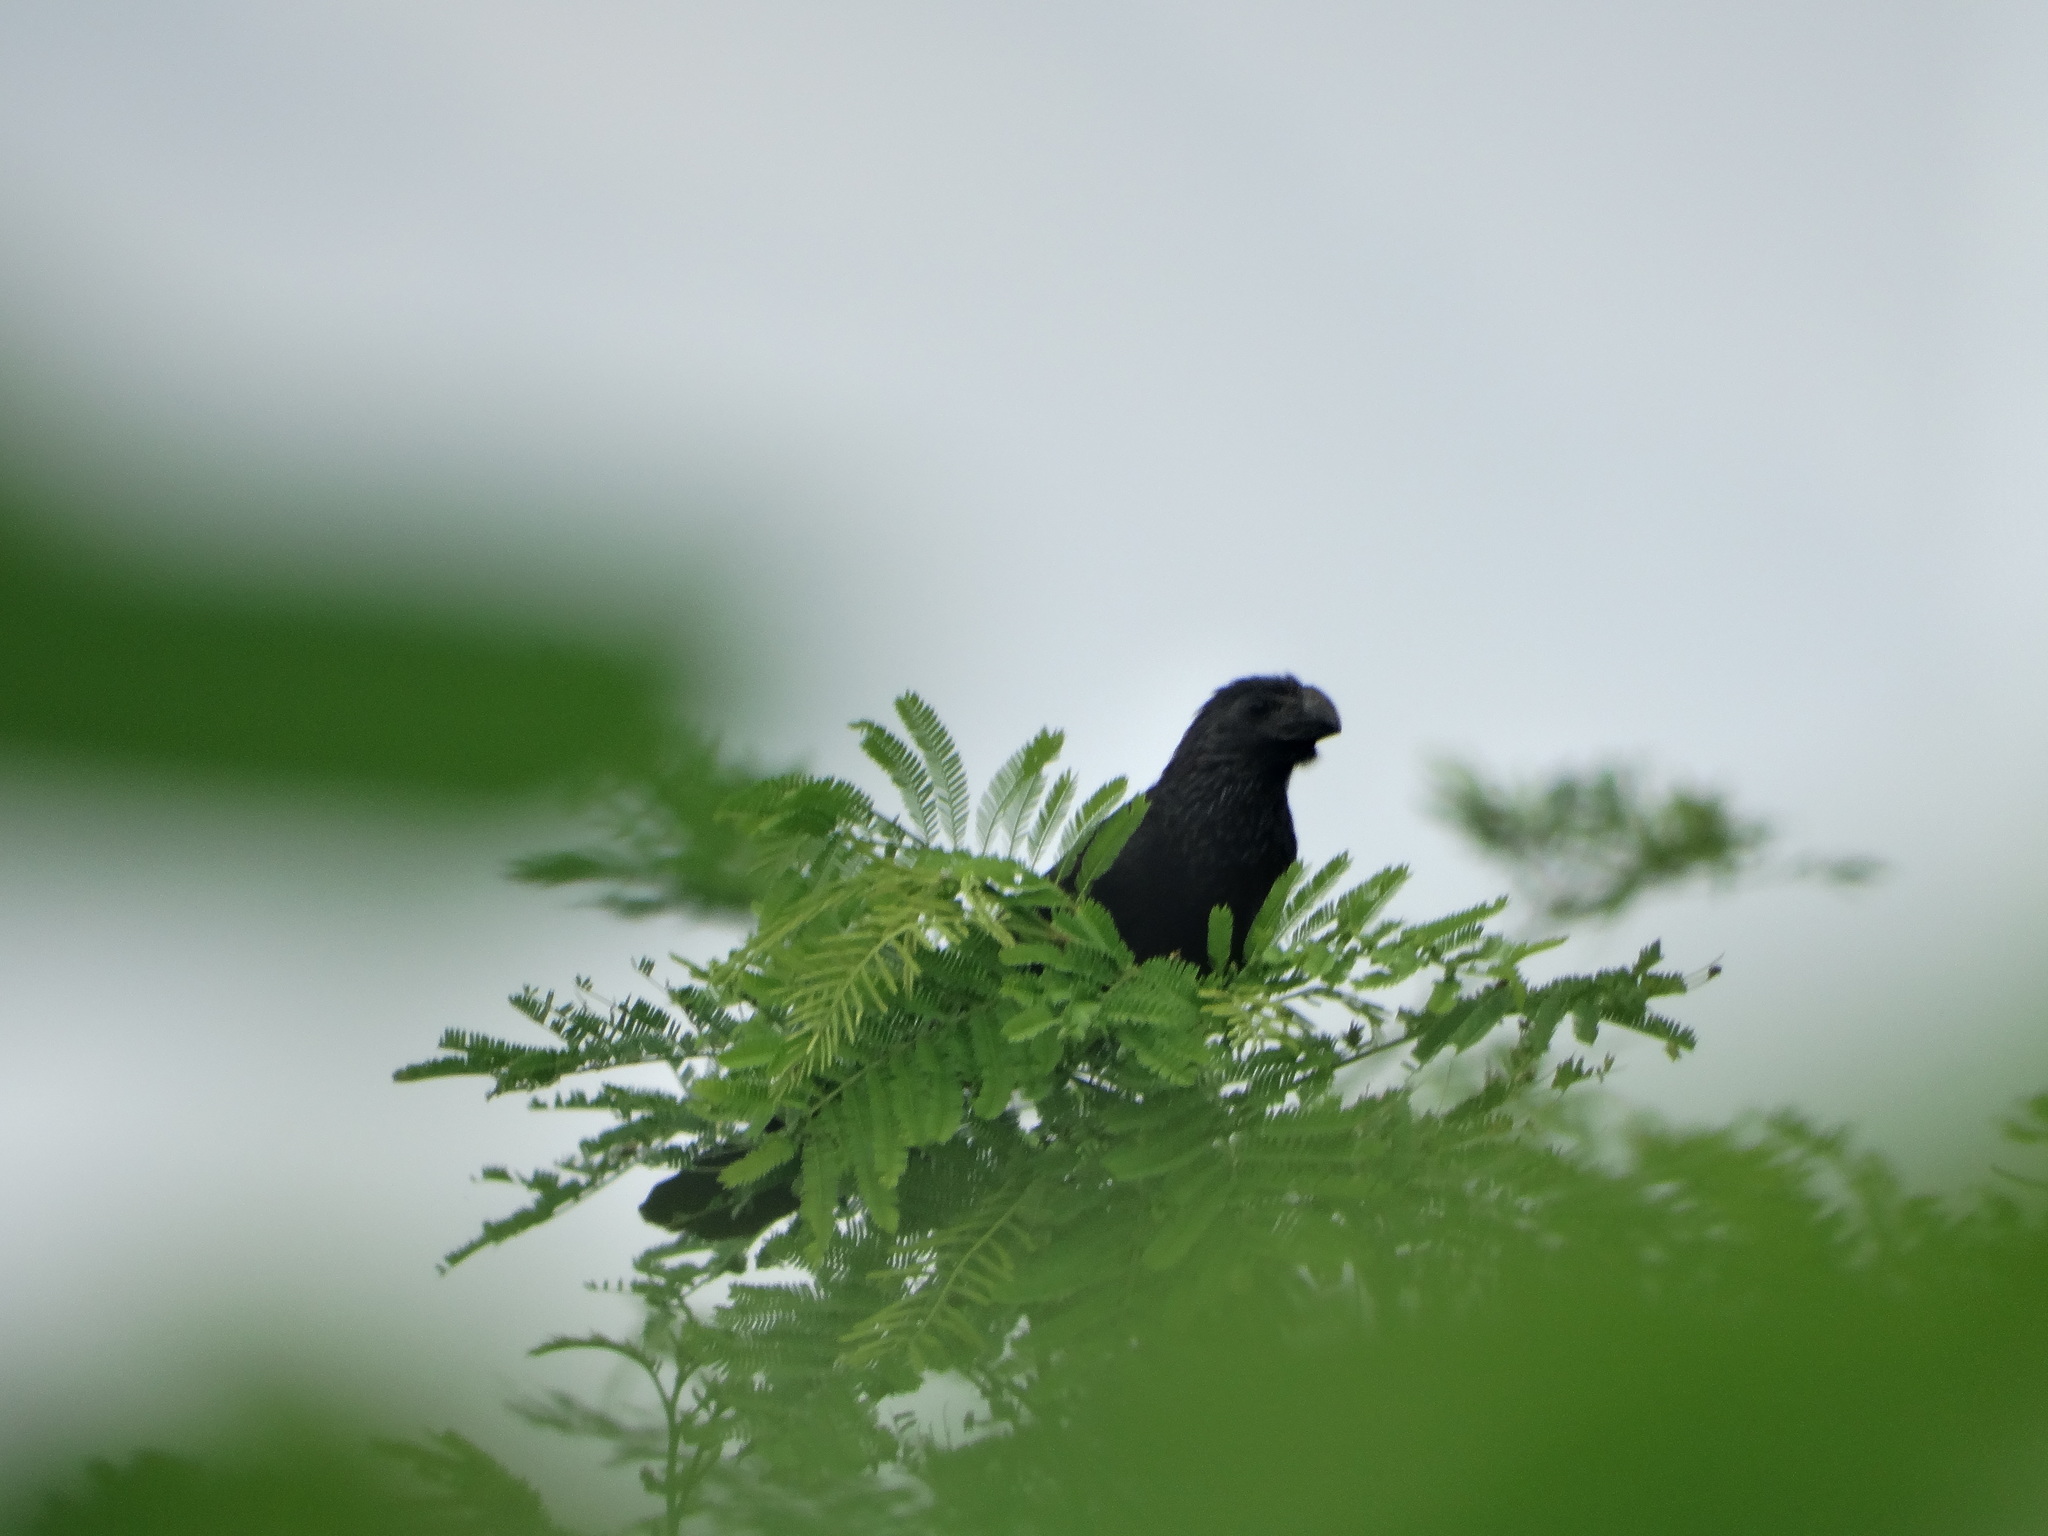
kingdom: Animalia
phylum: Chordata
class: Aves
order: Cuculiformes
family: Cuculidae
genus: Crotophaga
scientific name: Crotophaga sulcirostris
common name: Groove-billed ani
